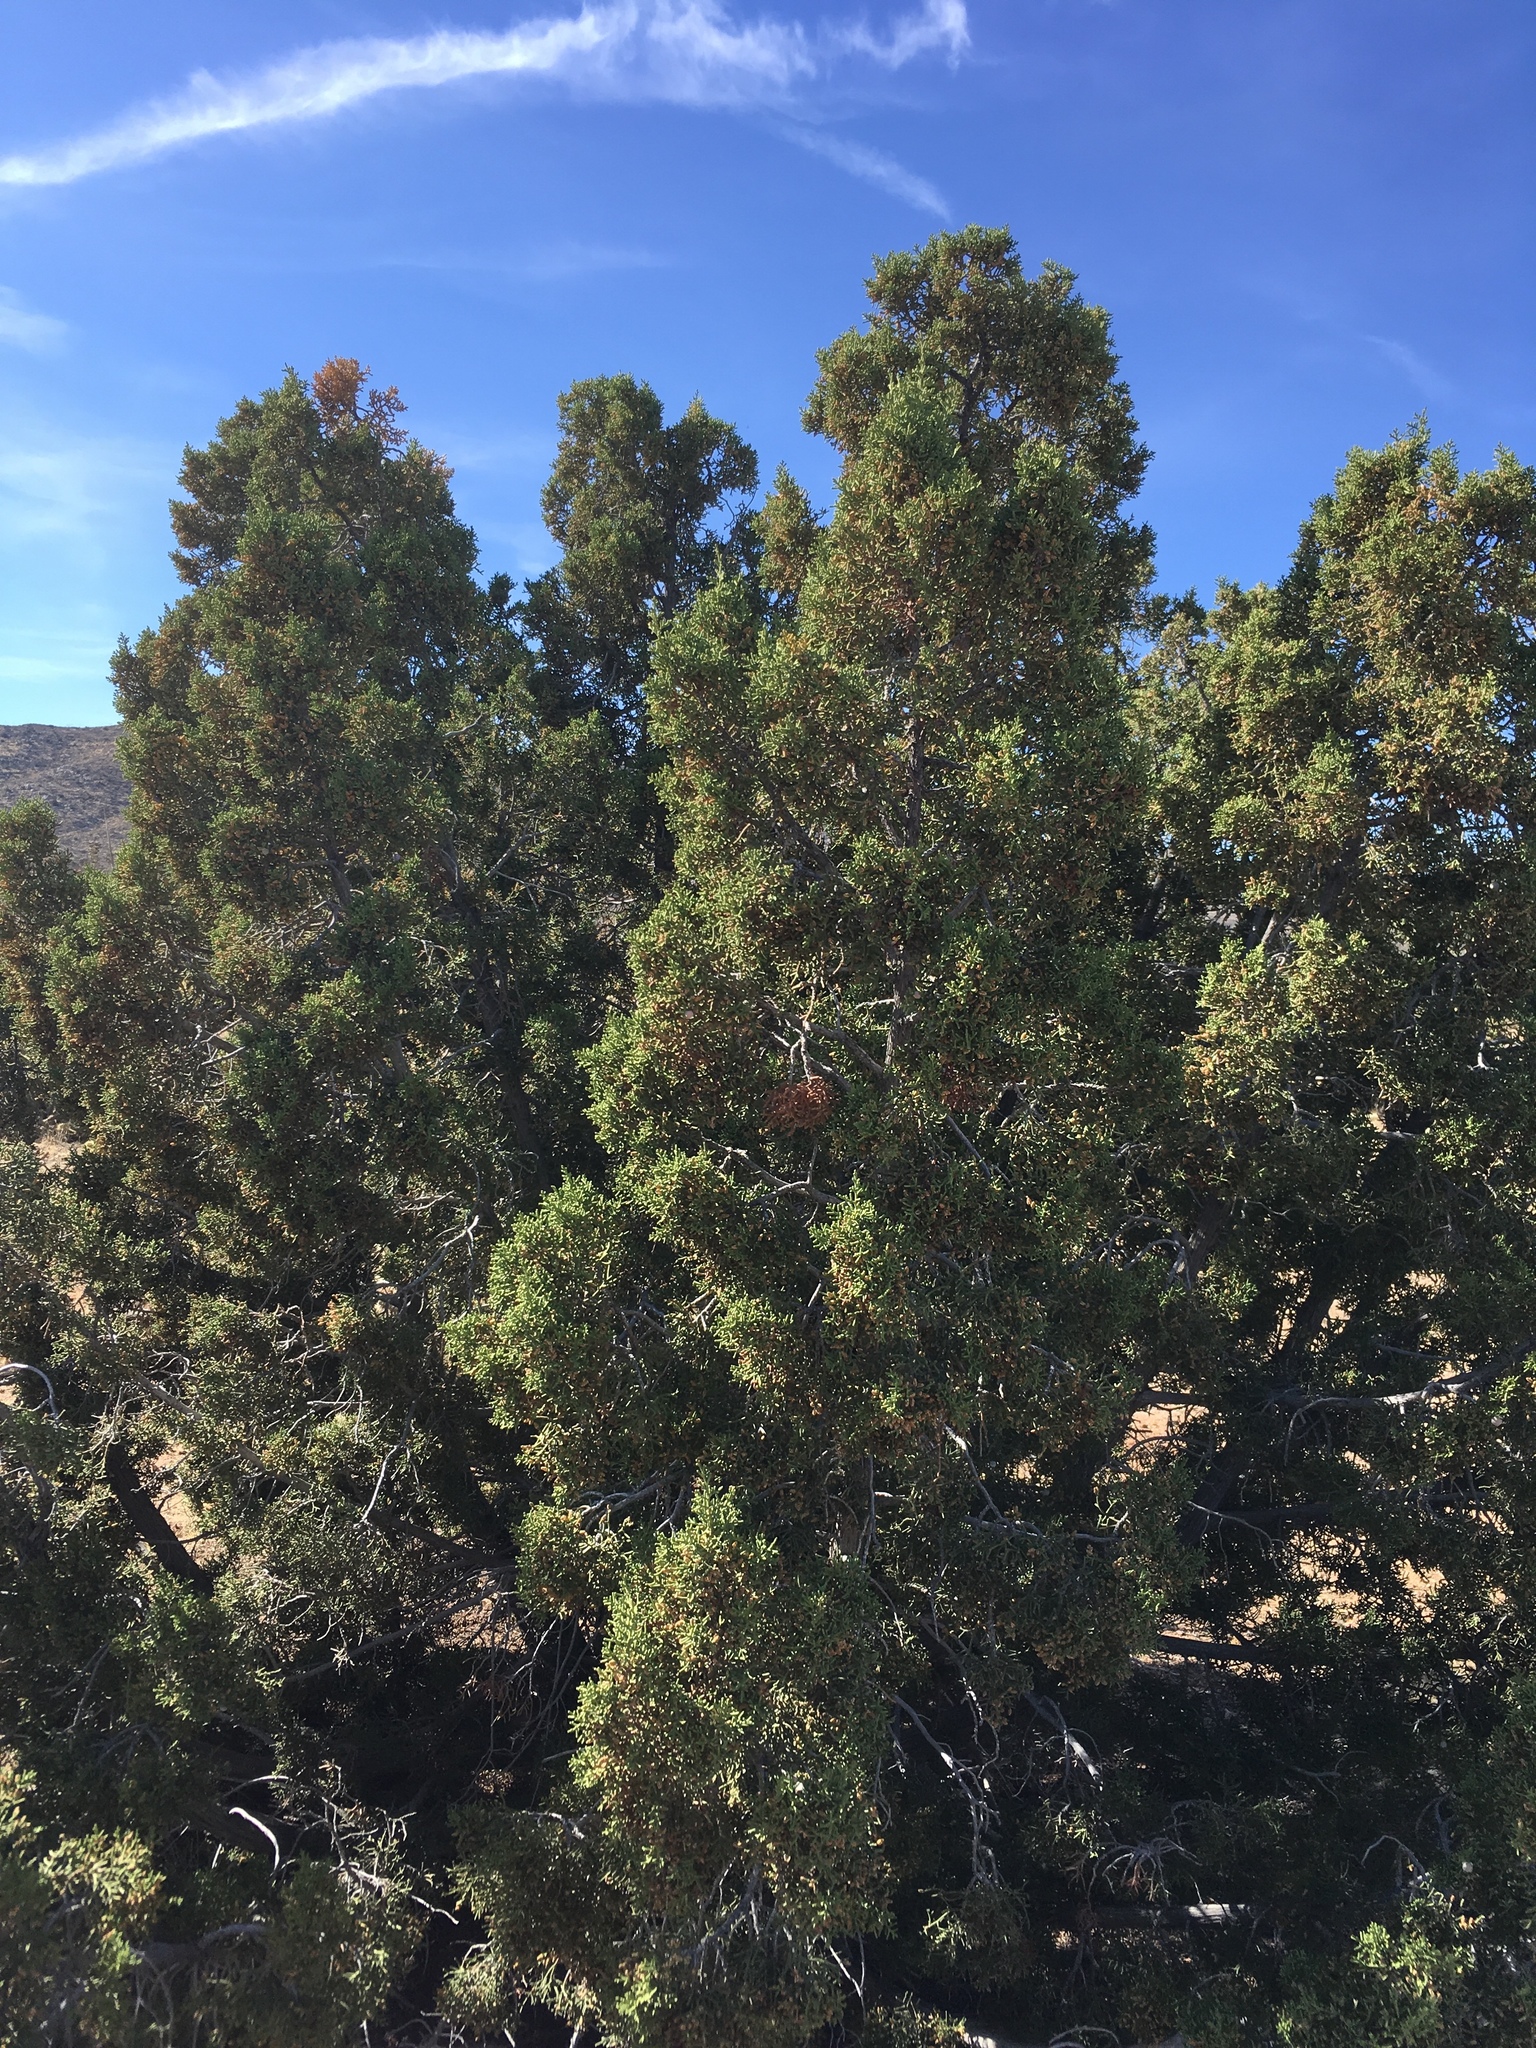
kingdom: Plantae
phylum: Tracheophyta
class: Pinopsida
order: Pinales
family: Cupressaceae
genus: Juniperus
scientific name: Juniperus californica
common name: California juniper
